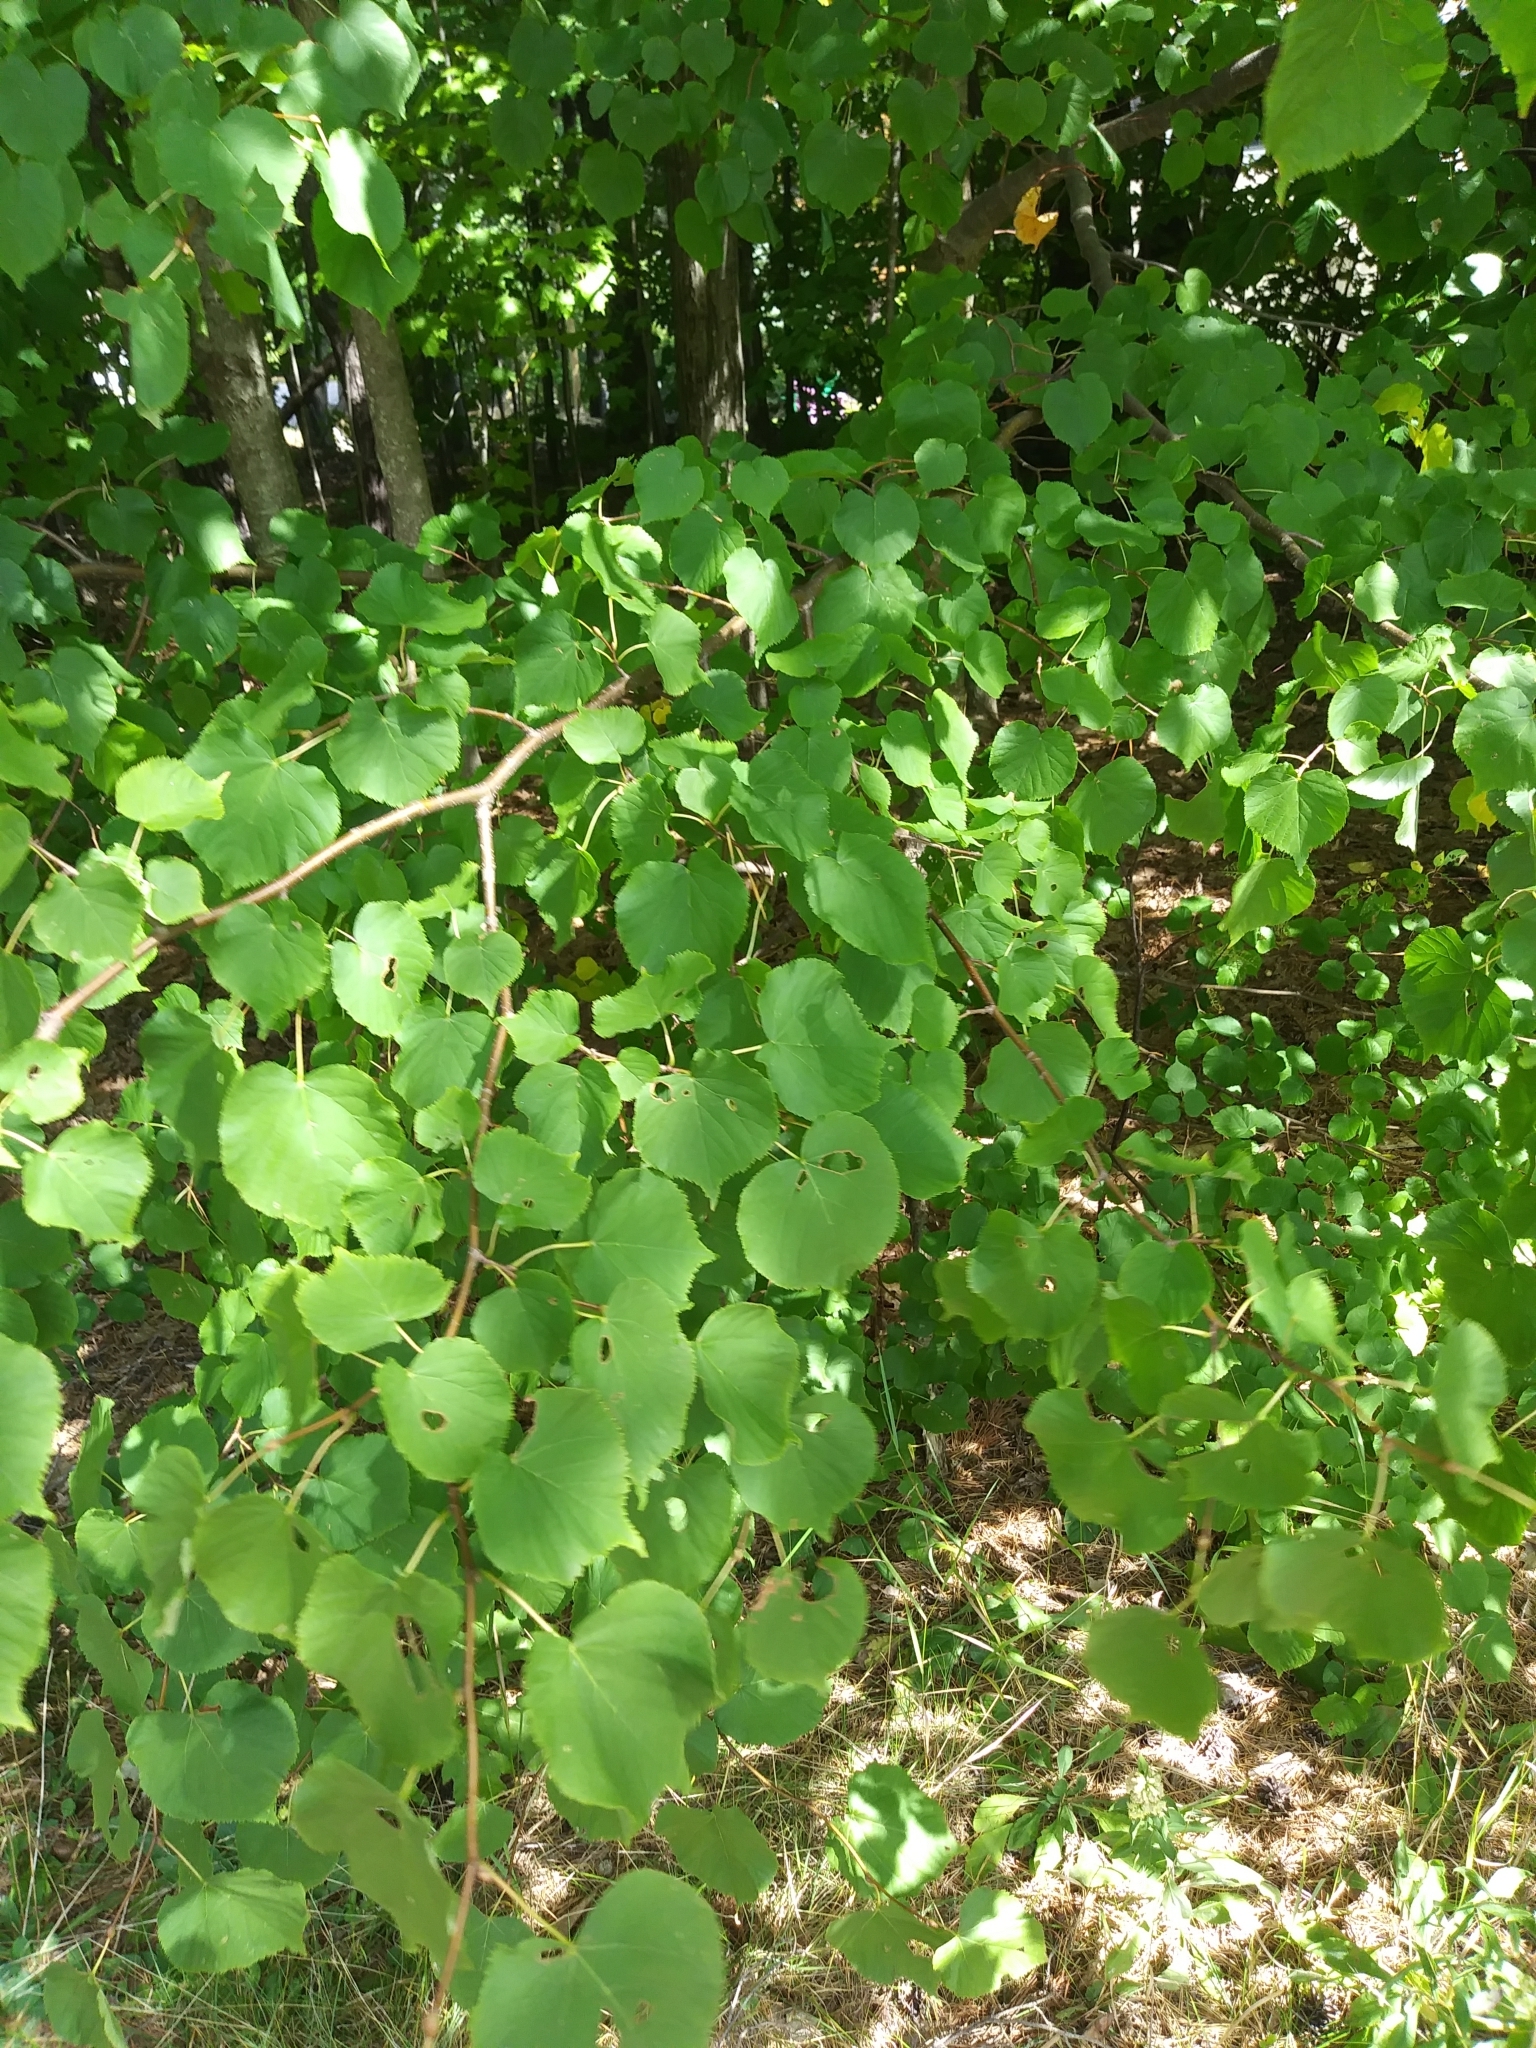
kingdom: Plantae
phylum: Tracheophyta
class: Magnoliopsida
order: Malvales
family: Malvaceae
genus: Tilia
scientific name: Tilia americana
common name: Basswood
